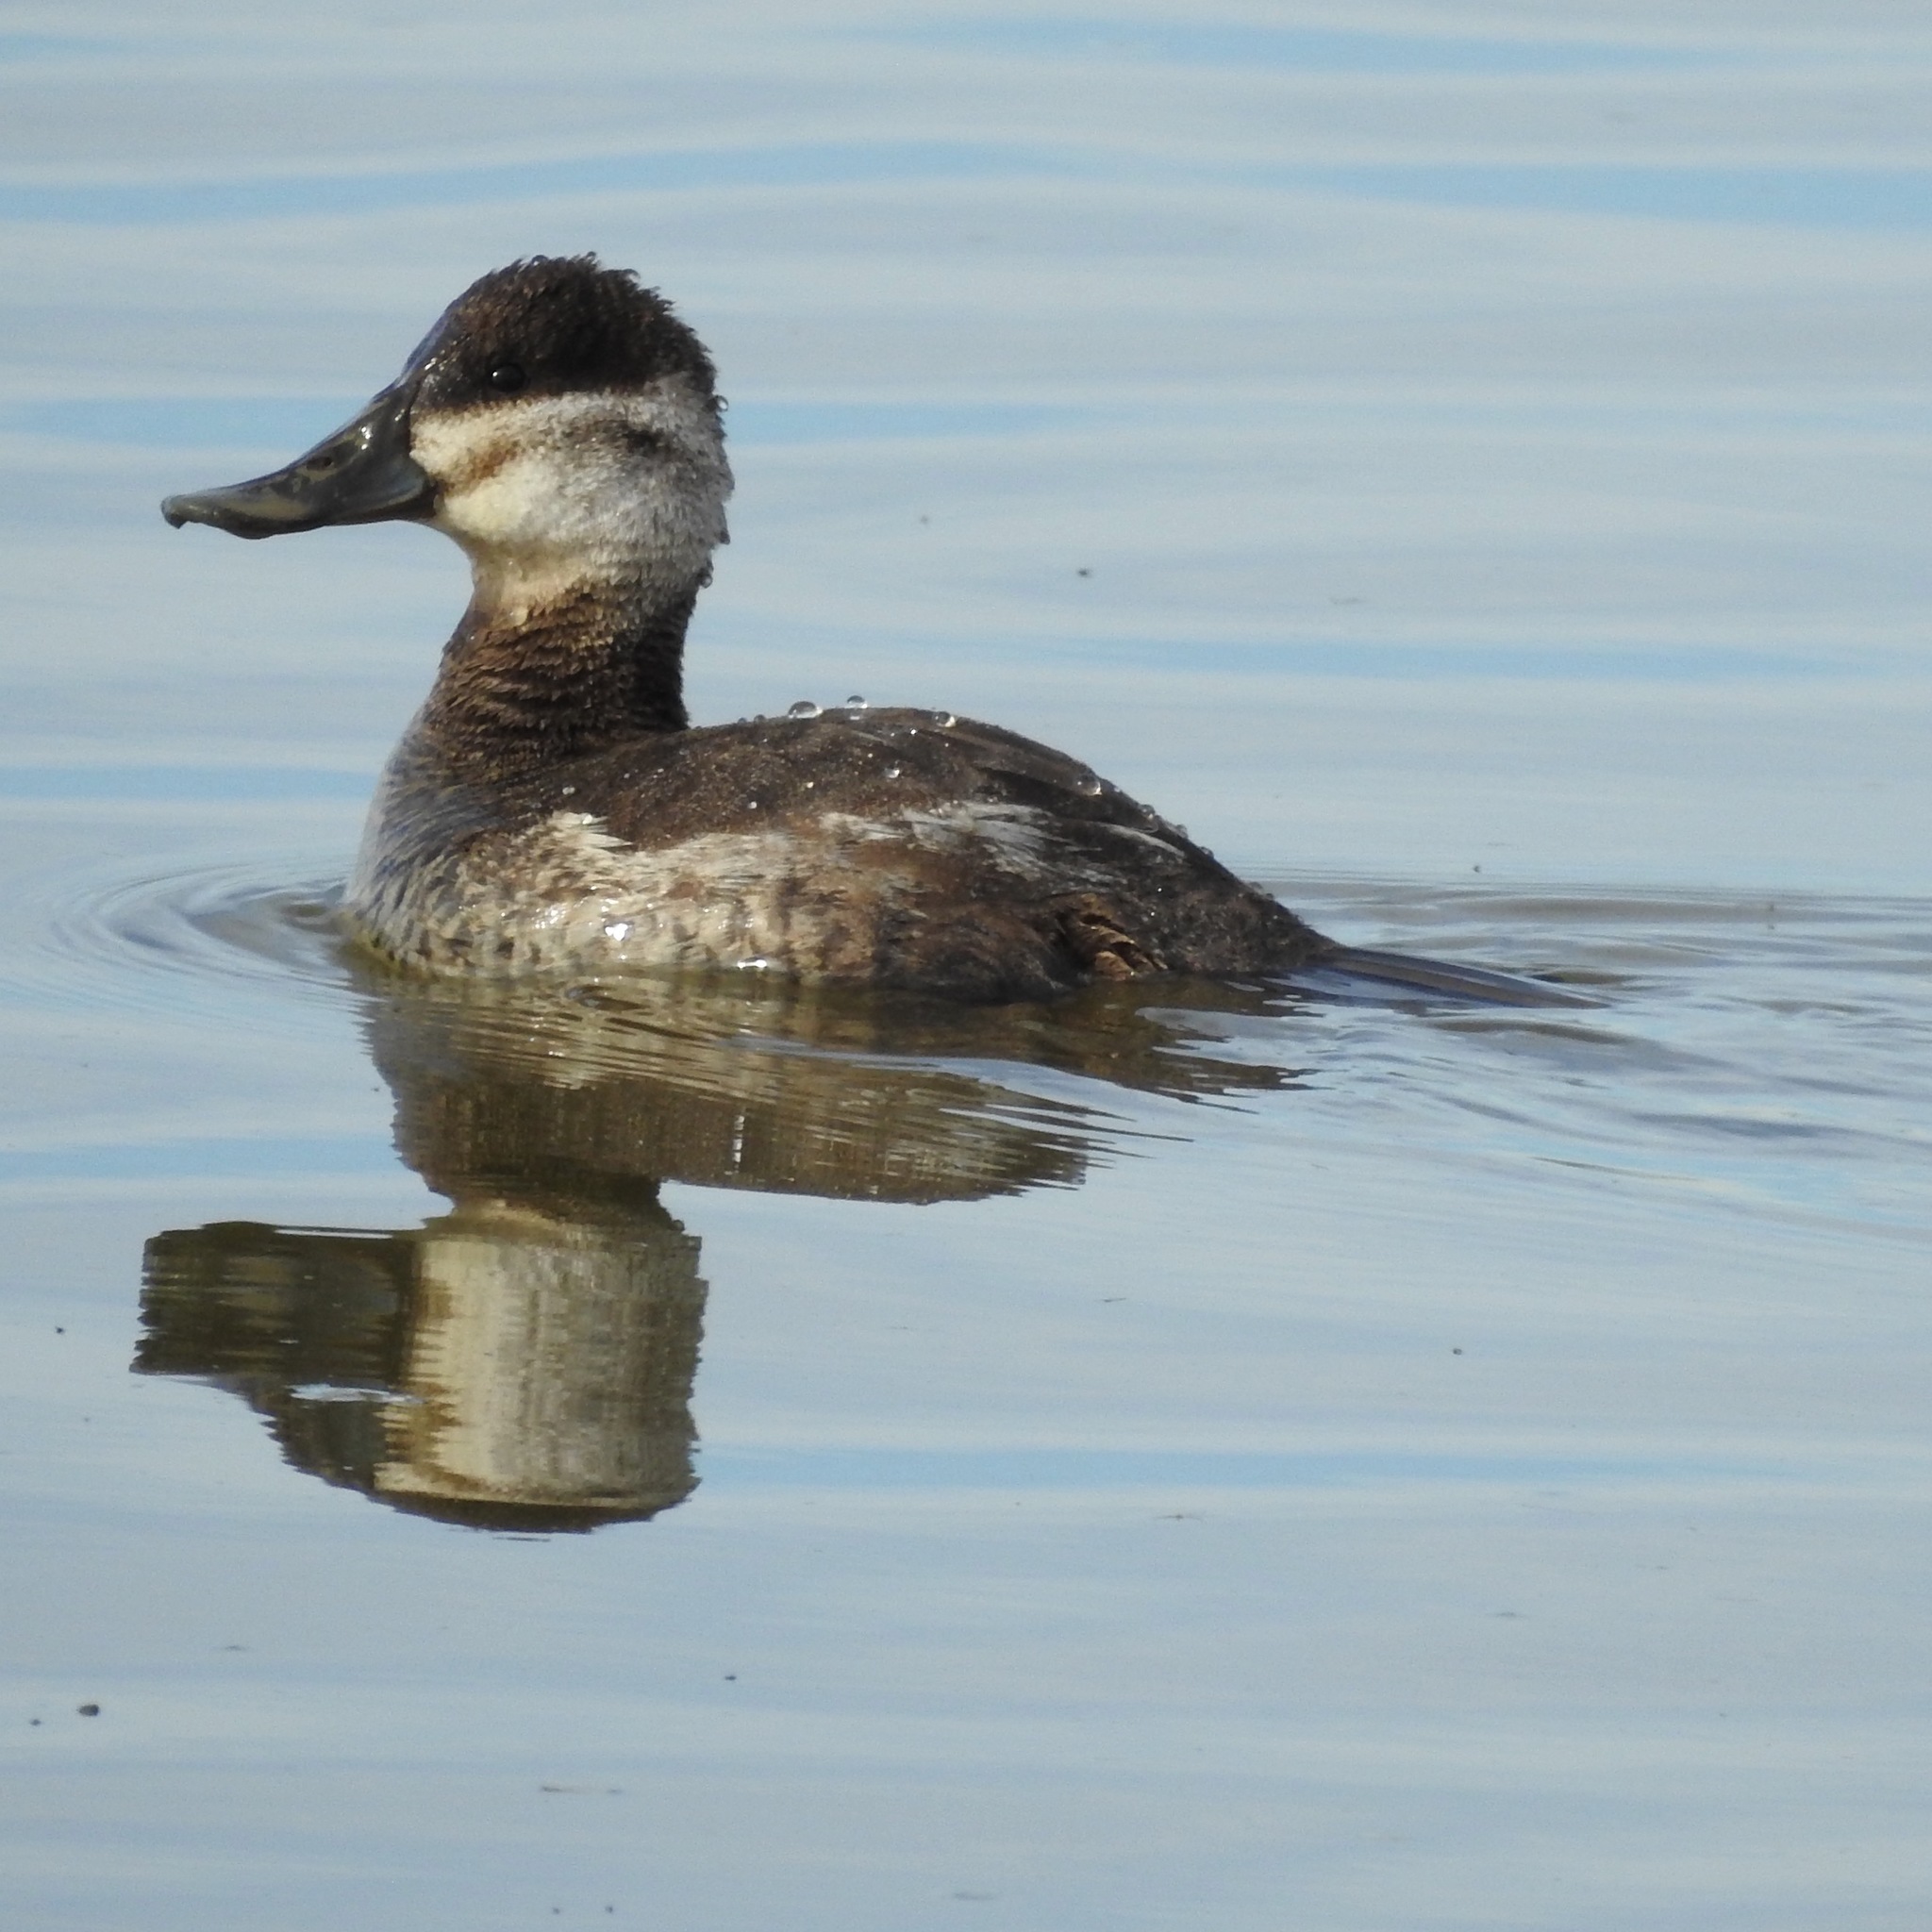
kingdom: Animalia
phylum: Chordata
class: Aves
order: Anseriformes
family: Anatidae
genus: Oxyura
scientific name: Oxyura jamaicensis
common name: Ruddy duck
